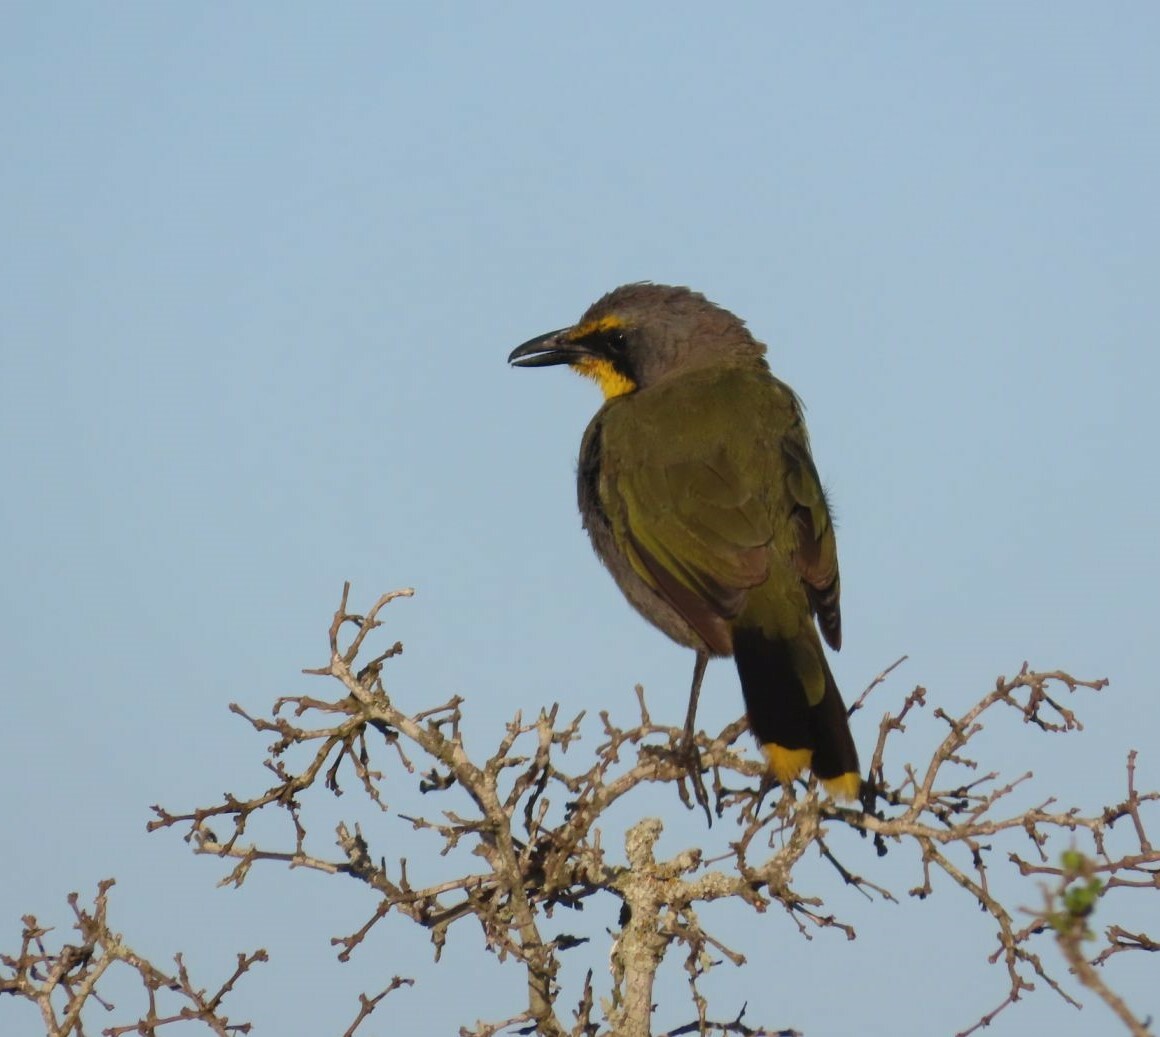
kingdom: Animalia
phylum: Chordata
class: Aves
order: Passeriformes
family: Malaconotidae
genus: Telophorus
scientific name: Telophorus zeylonus
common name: Bokmakierie
